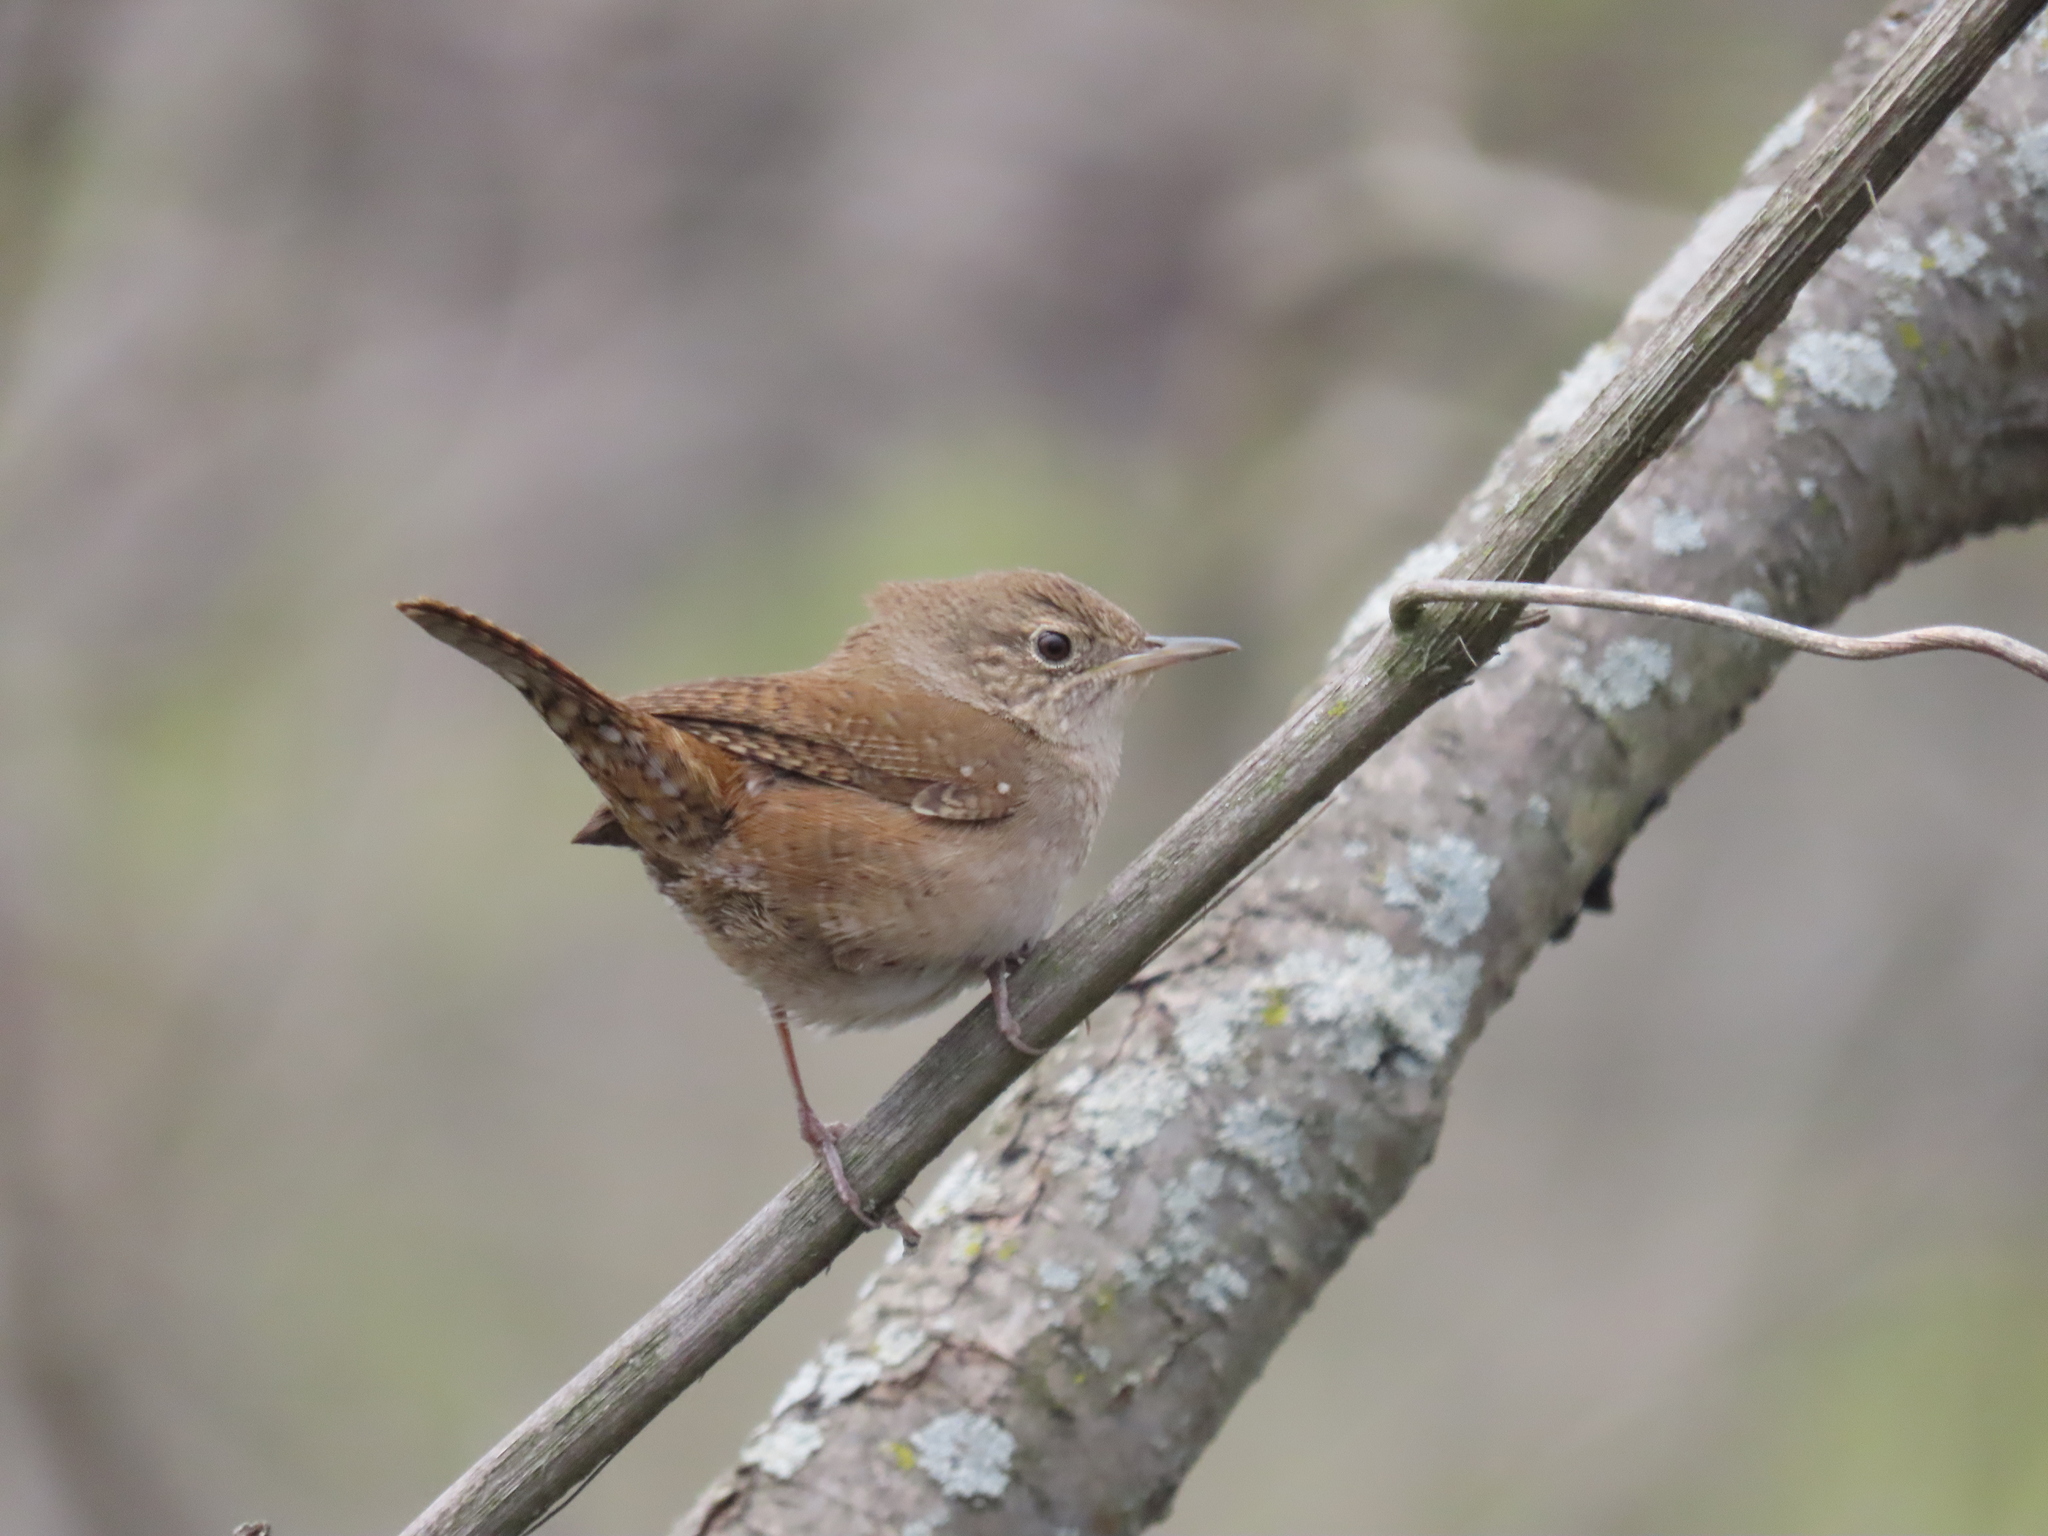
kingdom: Animalia
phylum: Chordata
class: Aves
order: Passeriformes
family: Troglodytidae
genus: Troglodytes
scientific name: Troglodytes aedon
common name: House wren
